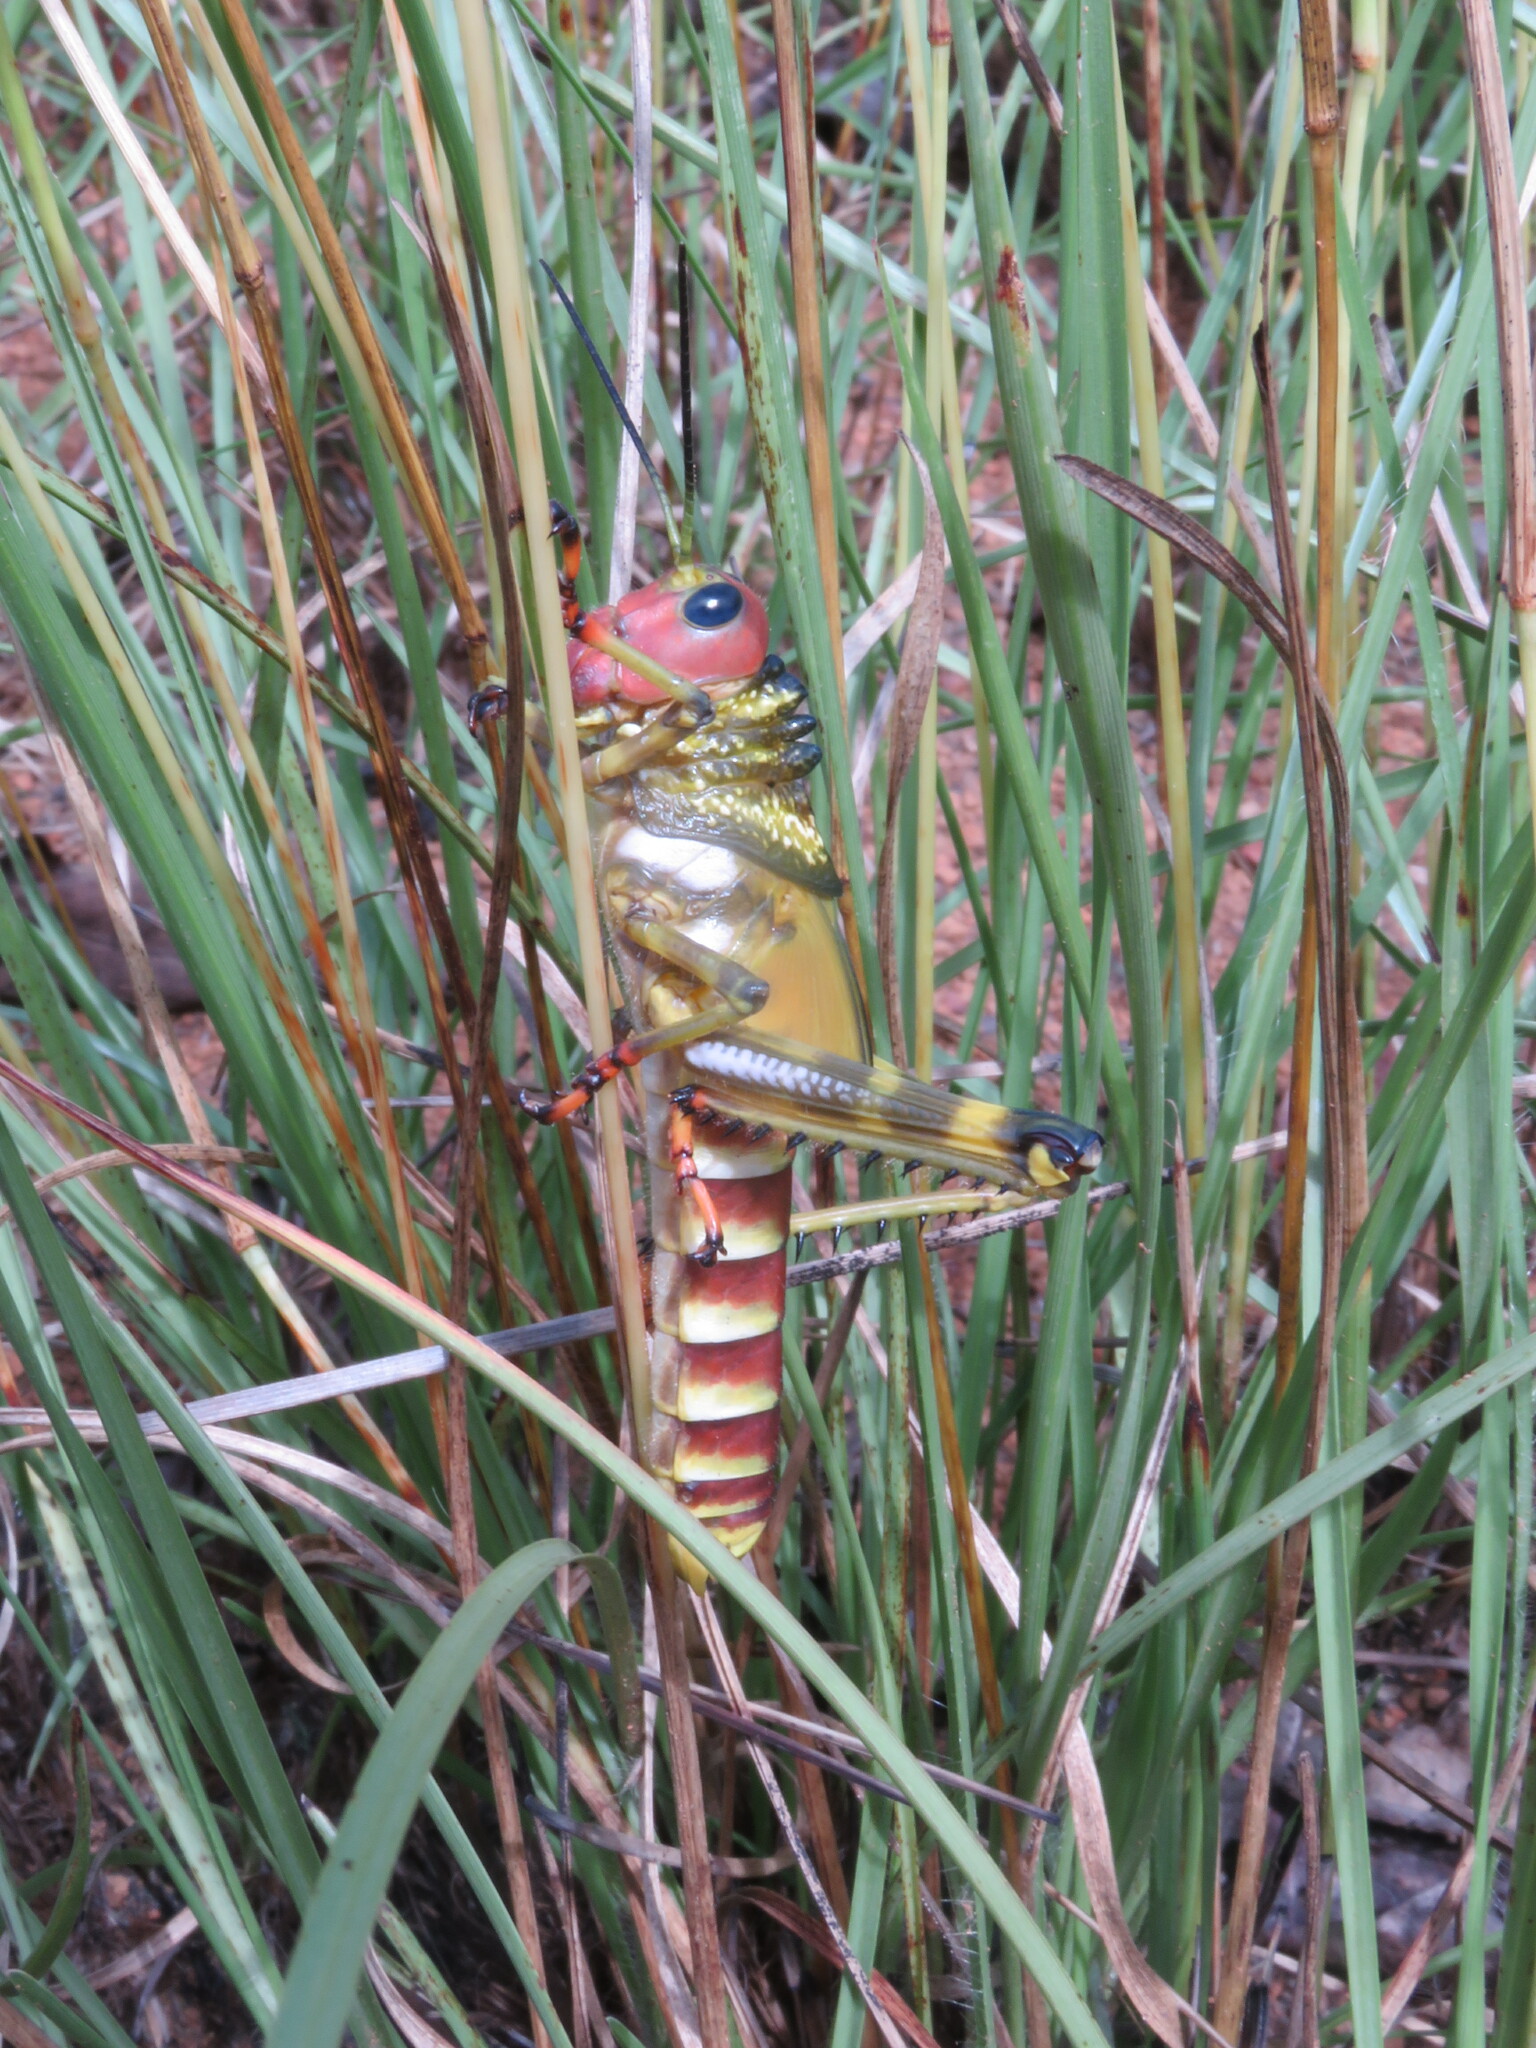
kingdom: Animalia
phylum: Arthropoda
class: Insecta
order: Orthoptera
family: Romaleidae
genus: Tropidacris
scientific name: Tropidacris cristata
